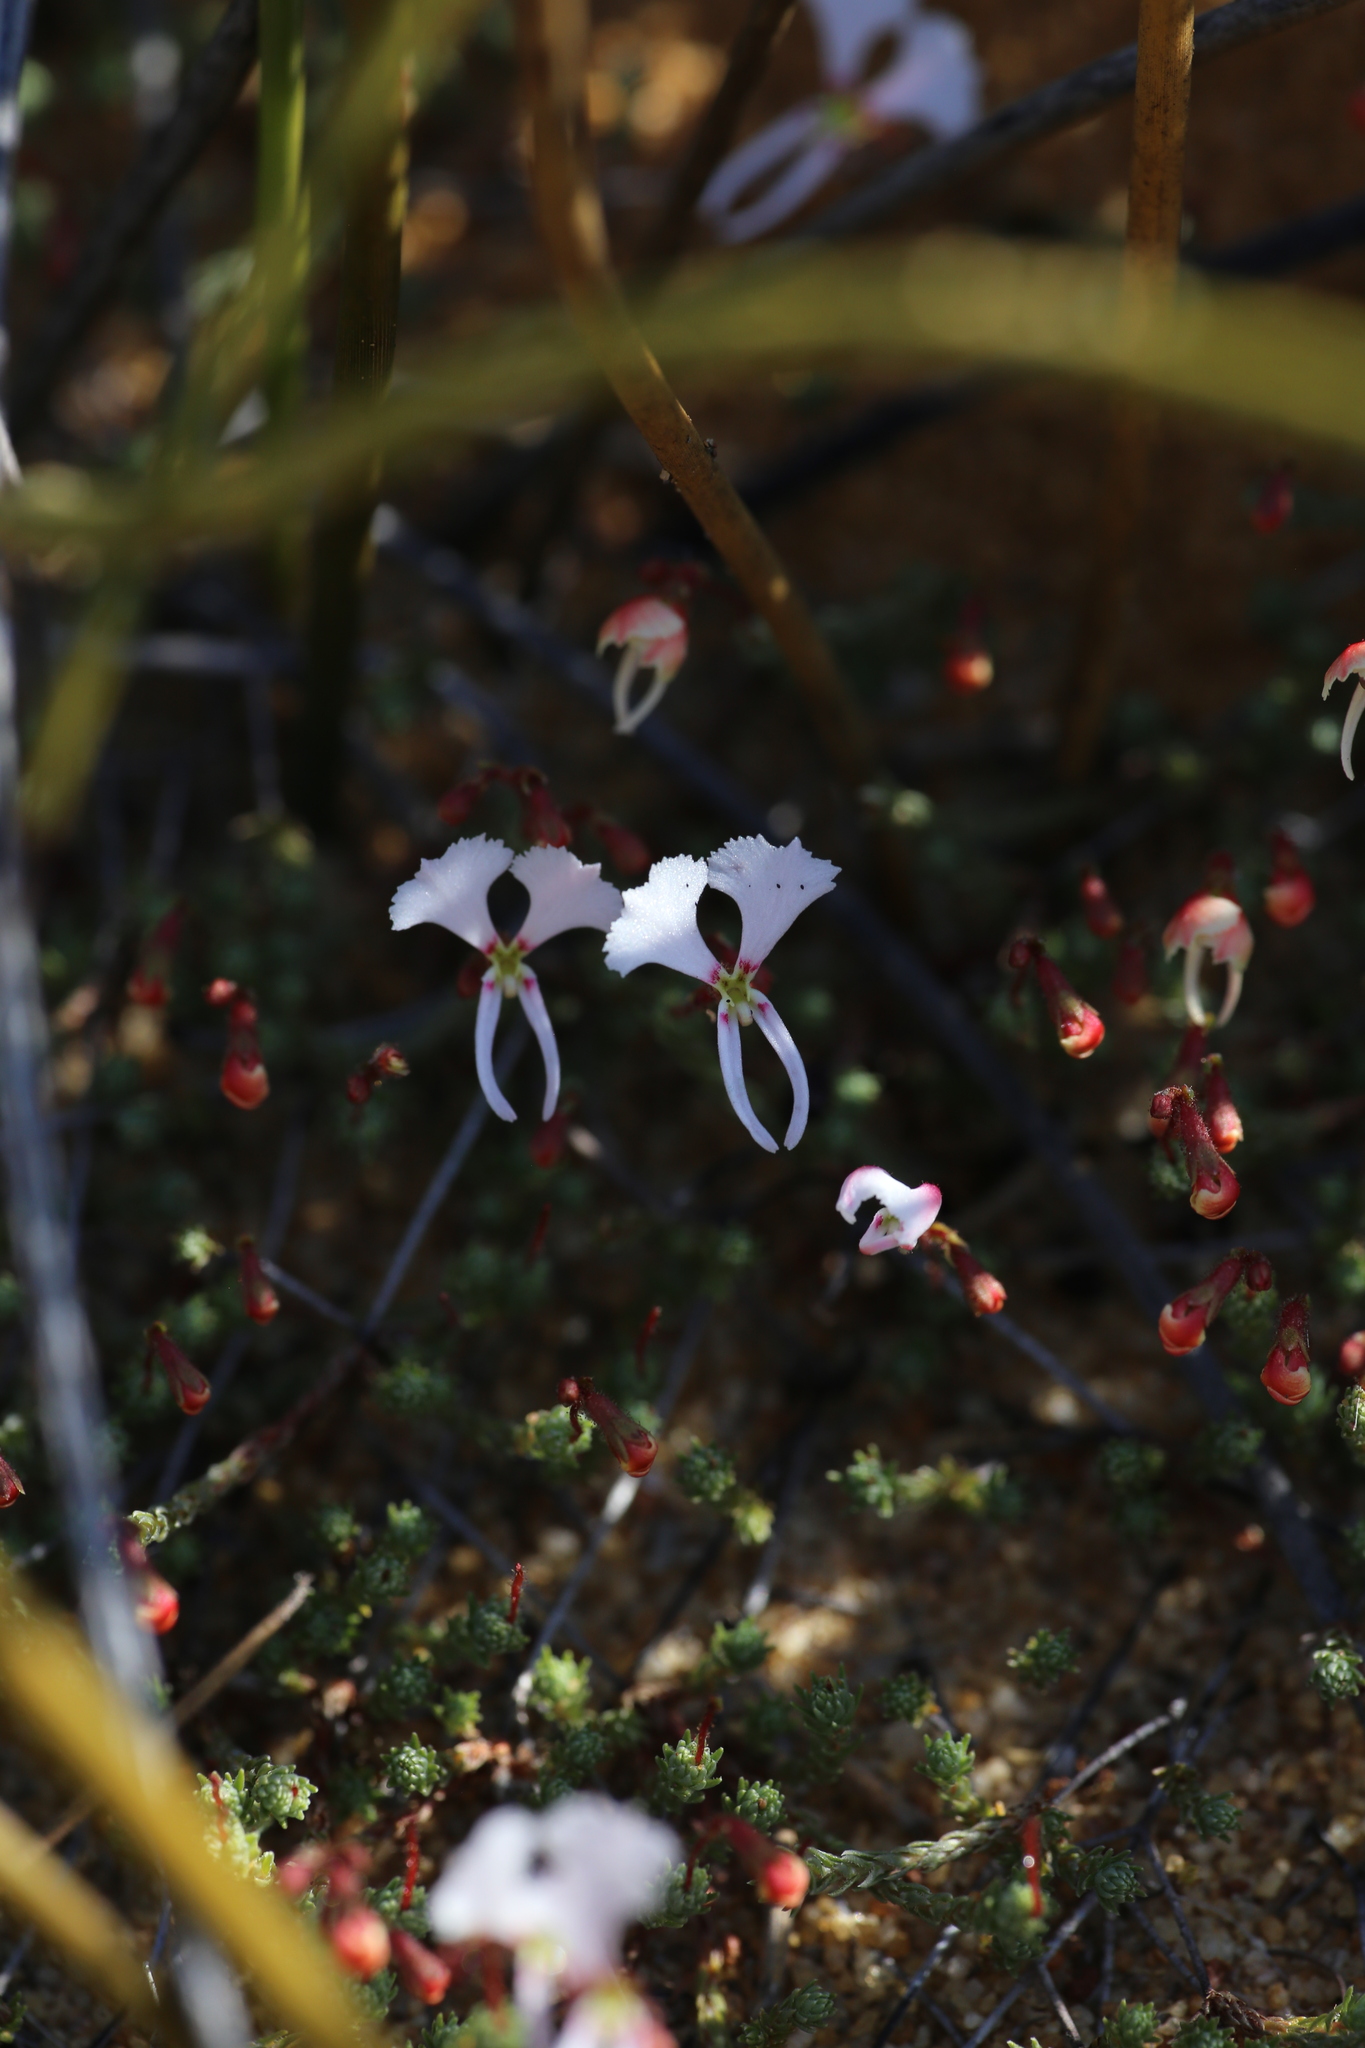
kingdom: Plantae
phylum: Tracheophyta
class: Magnoliopsida
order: Asterales
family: Stylidiaceae
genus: Stylidium
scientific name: Stylidium choreanthum
